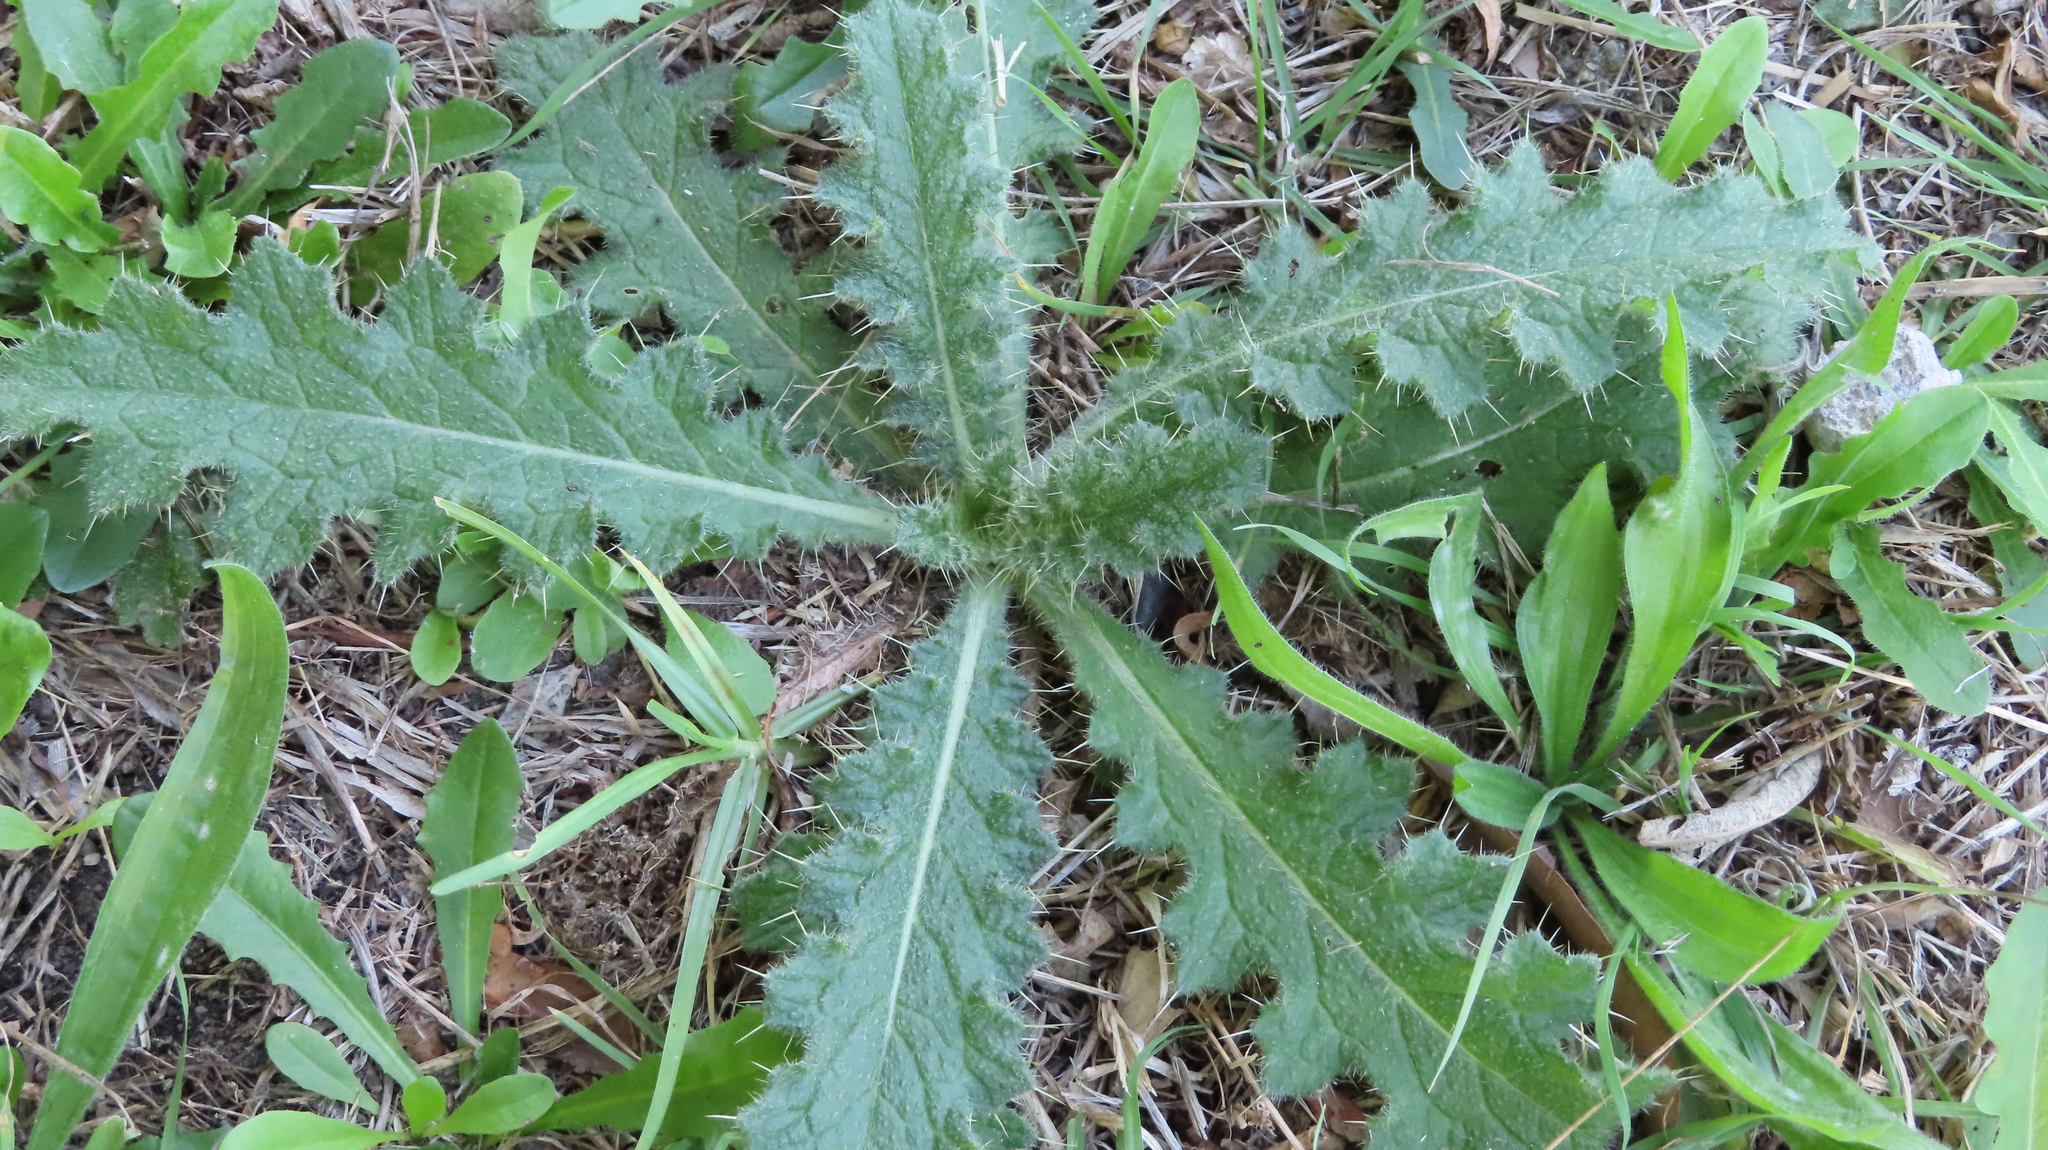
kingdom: Plantae
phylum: Tracheophyta
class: Magnoliopsida
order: Asterales
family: Asteraceae
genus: Cirsium
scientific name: Cirsium vulgare
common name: Bull thistle
